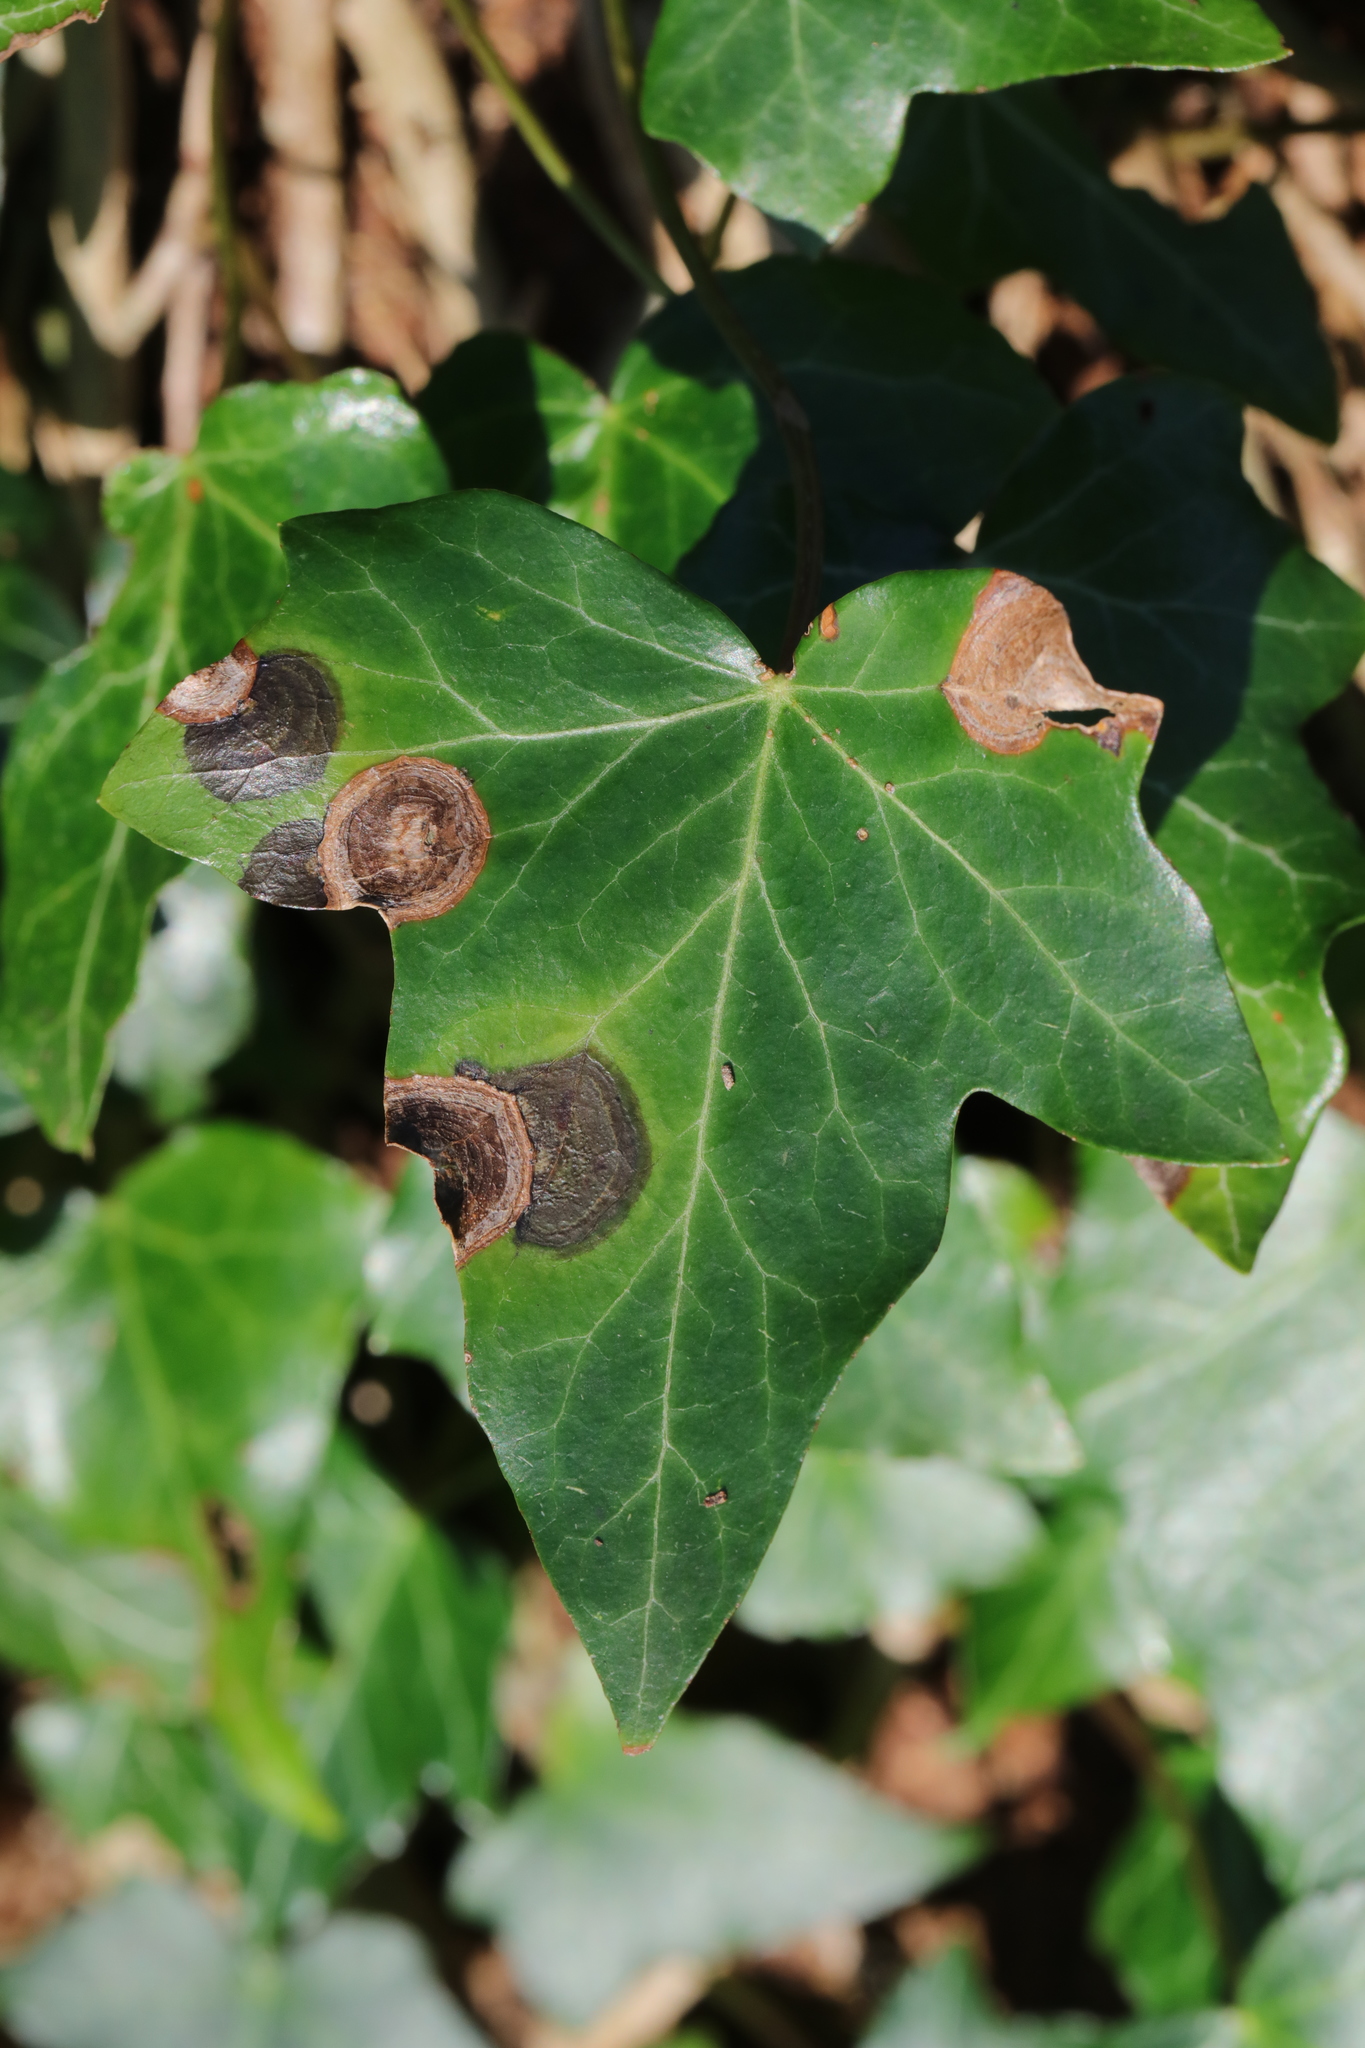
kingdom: Fungi
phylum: Ascomycota
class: Dothideomycetes
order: Pleosporales
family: Didymellaceae
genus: Boeremia
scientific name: Boeremia hedericola
